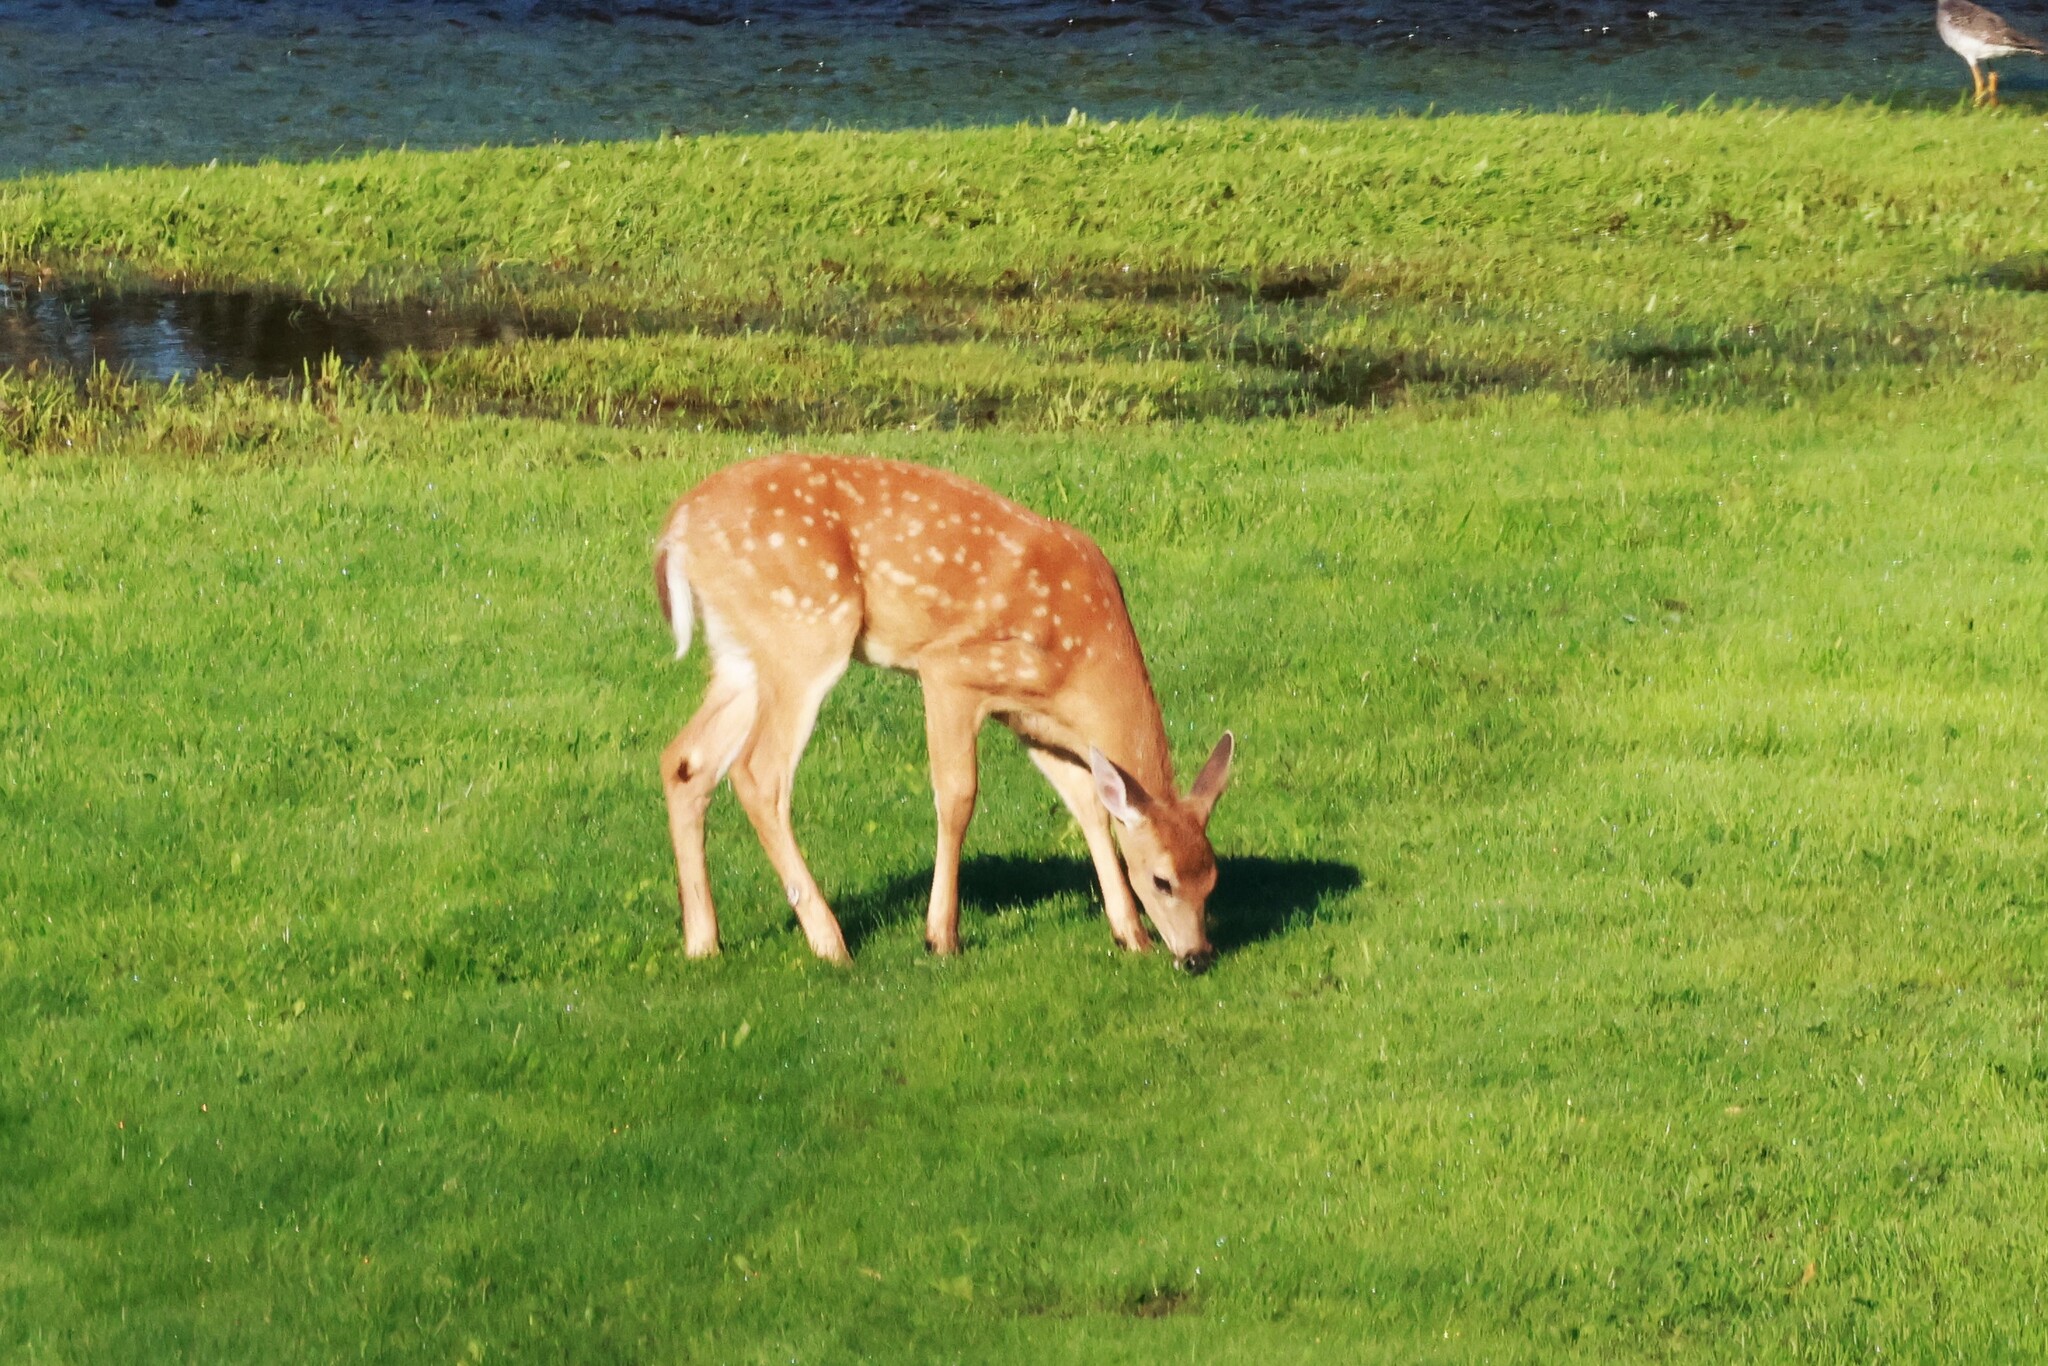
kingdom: Animalia
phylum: Chordata
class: Mammalia
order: Artiodactyla
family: Cervidae
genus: Odocoileus
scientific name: Odocoileus virginianus
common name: White-tailed deer
